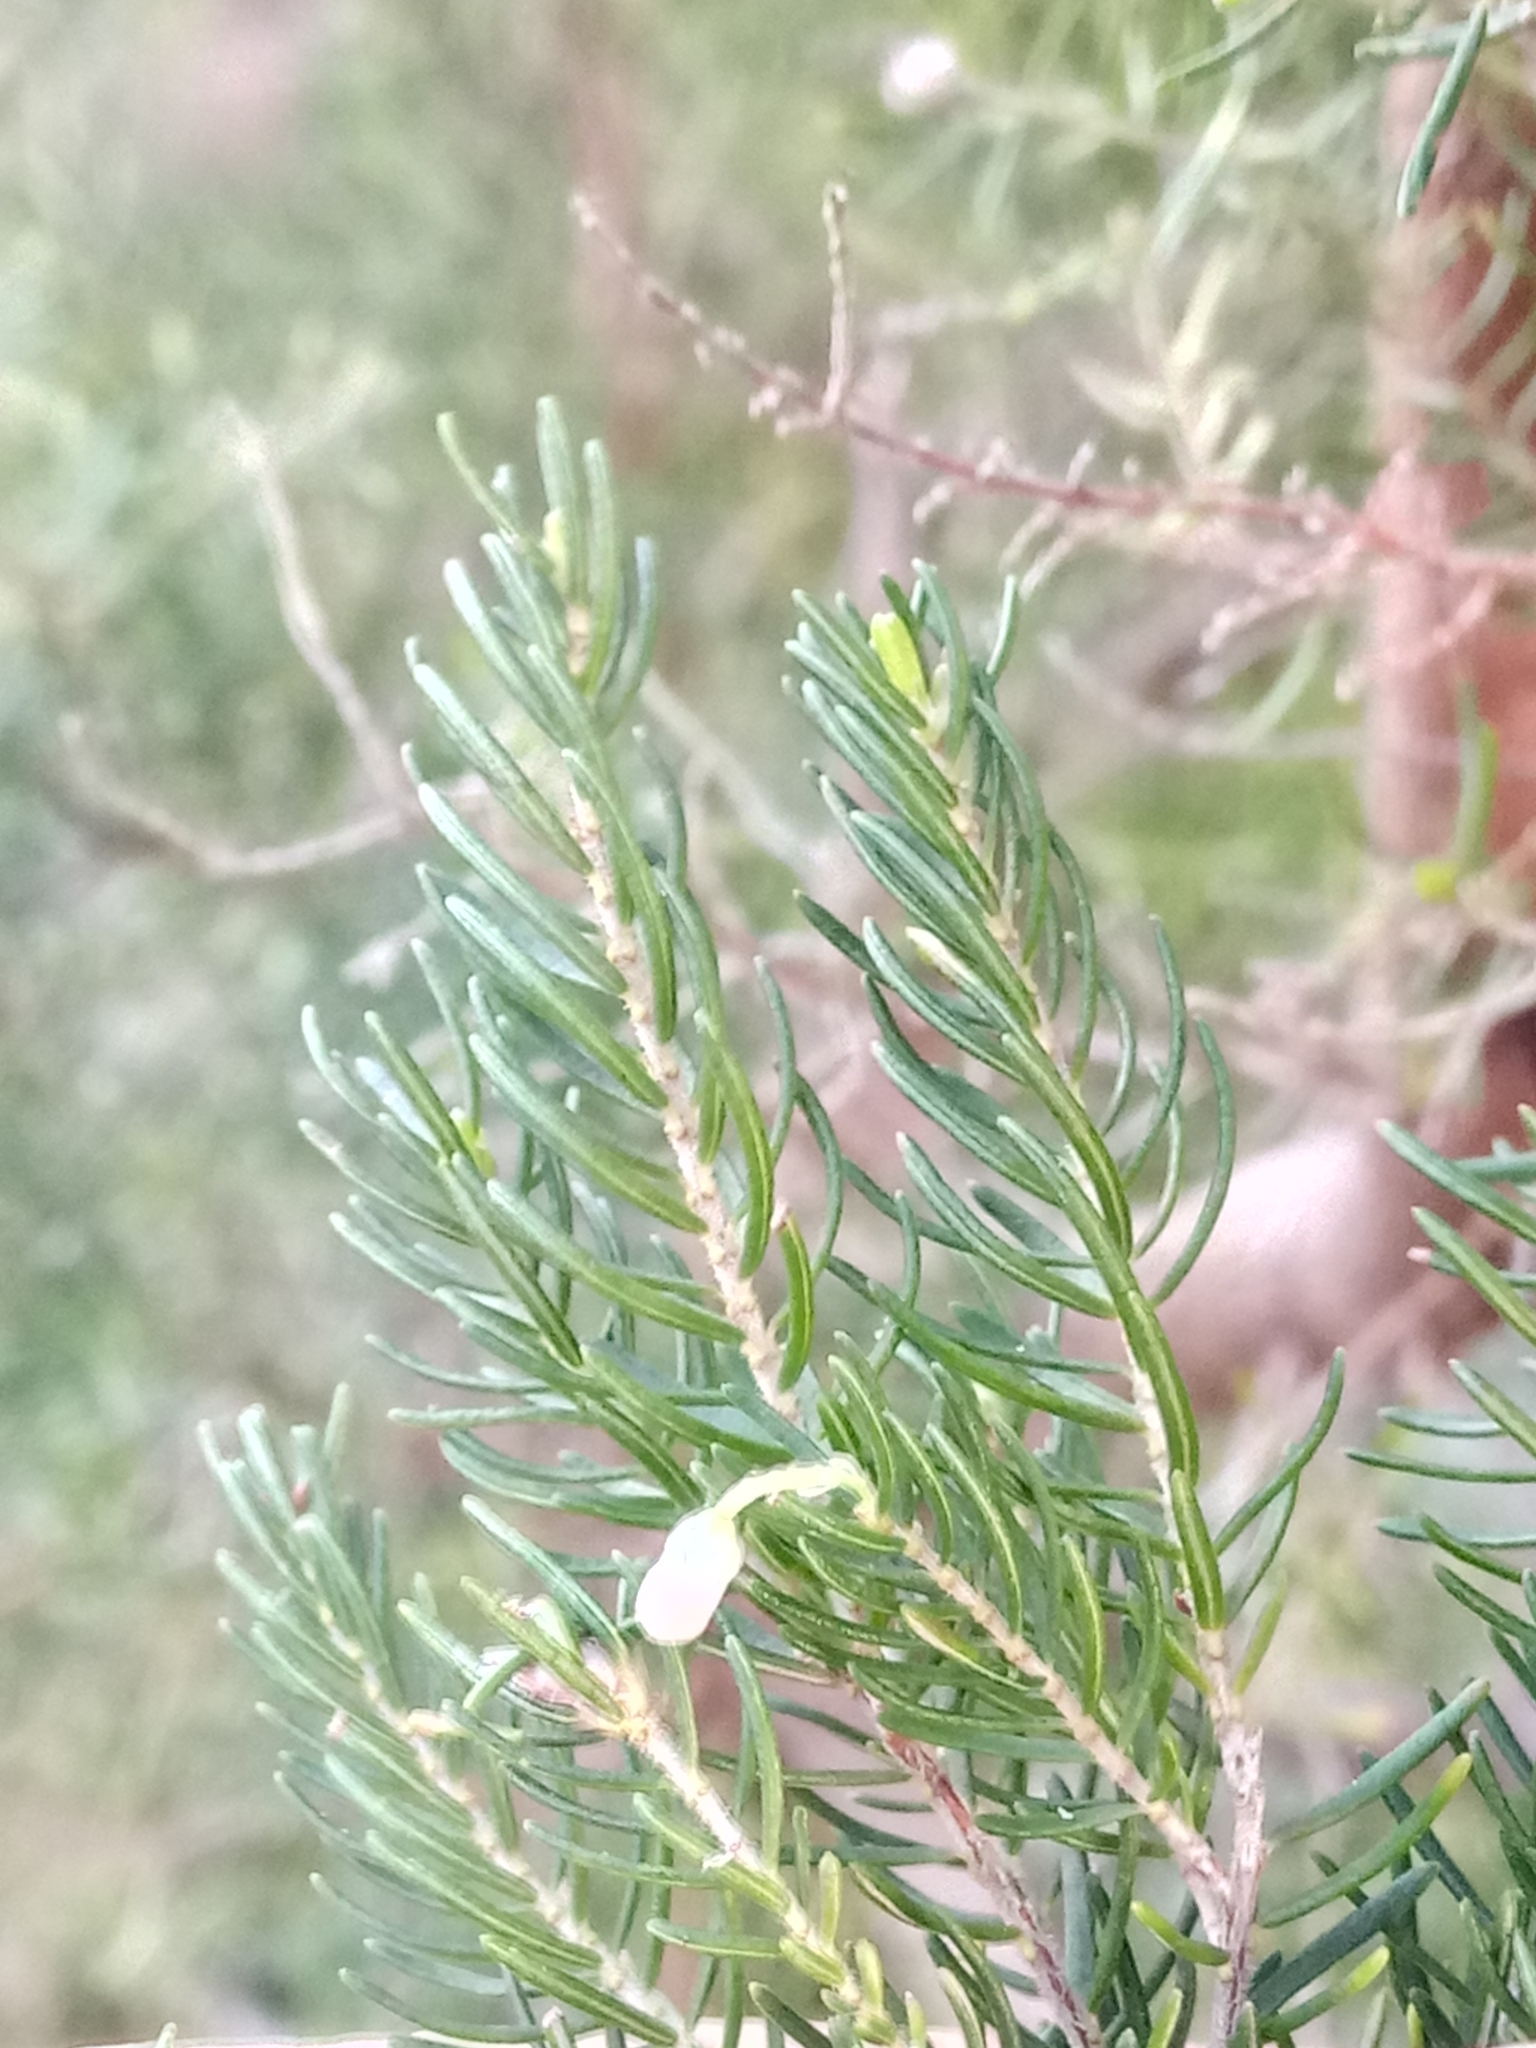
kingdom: Plantae
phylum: Tracheophyta
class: Magnoliopsida
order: Ericales
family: Ericaceae
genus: Erica
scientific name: Erica arborea
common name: Tree heath
